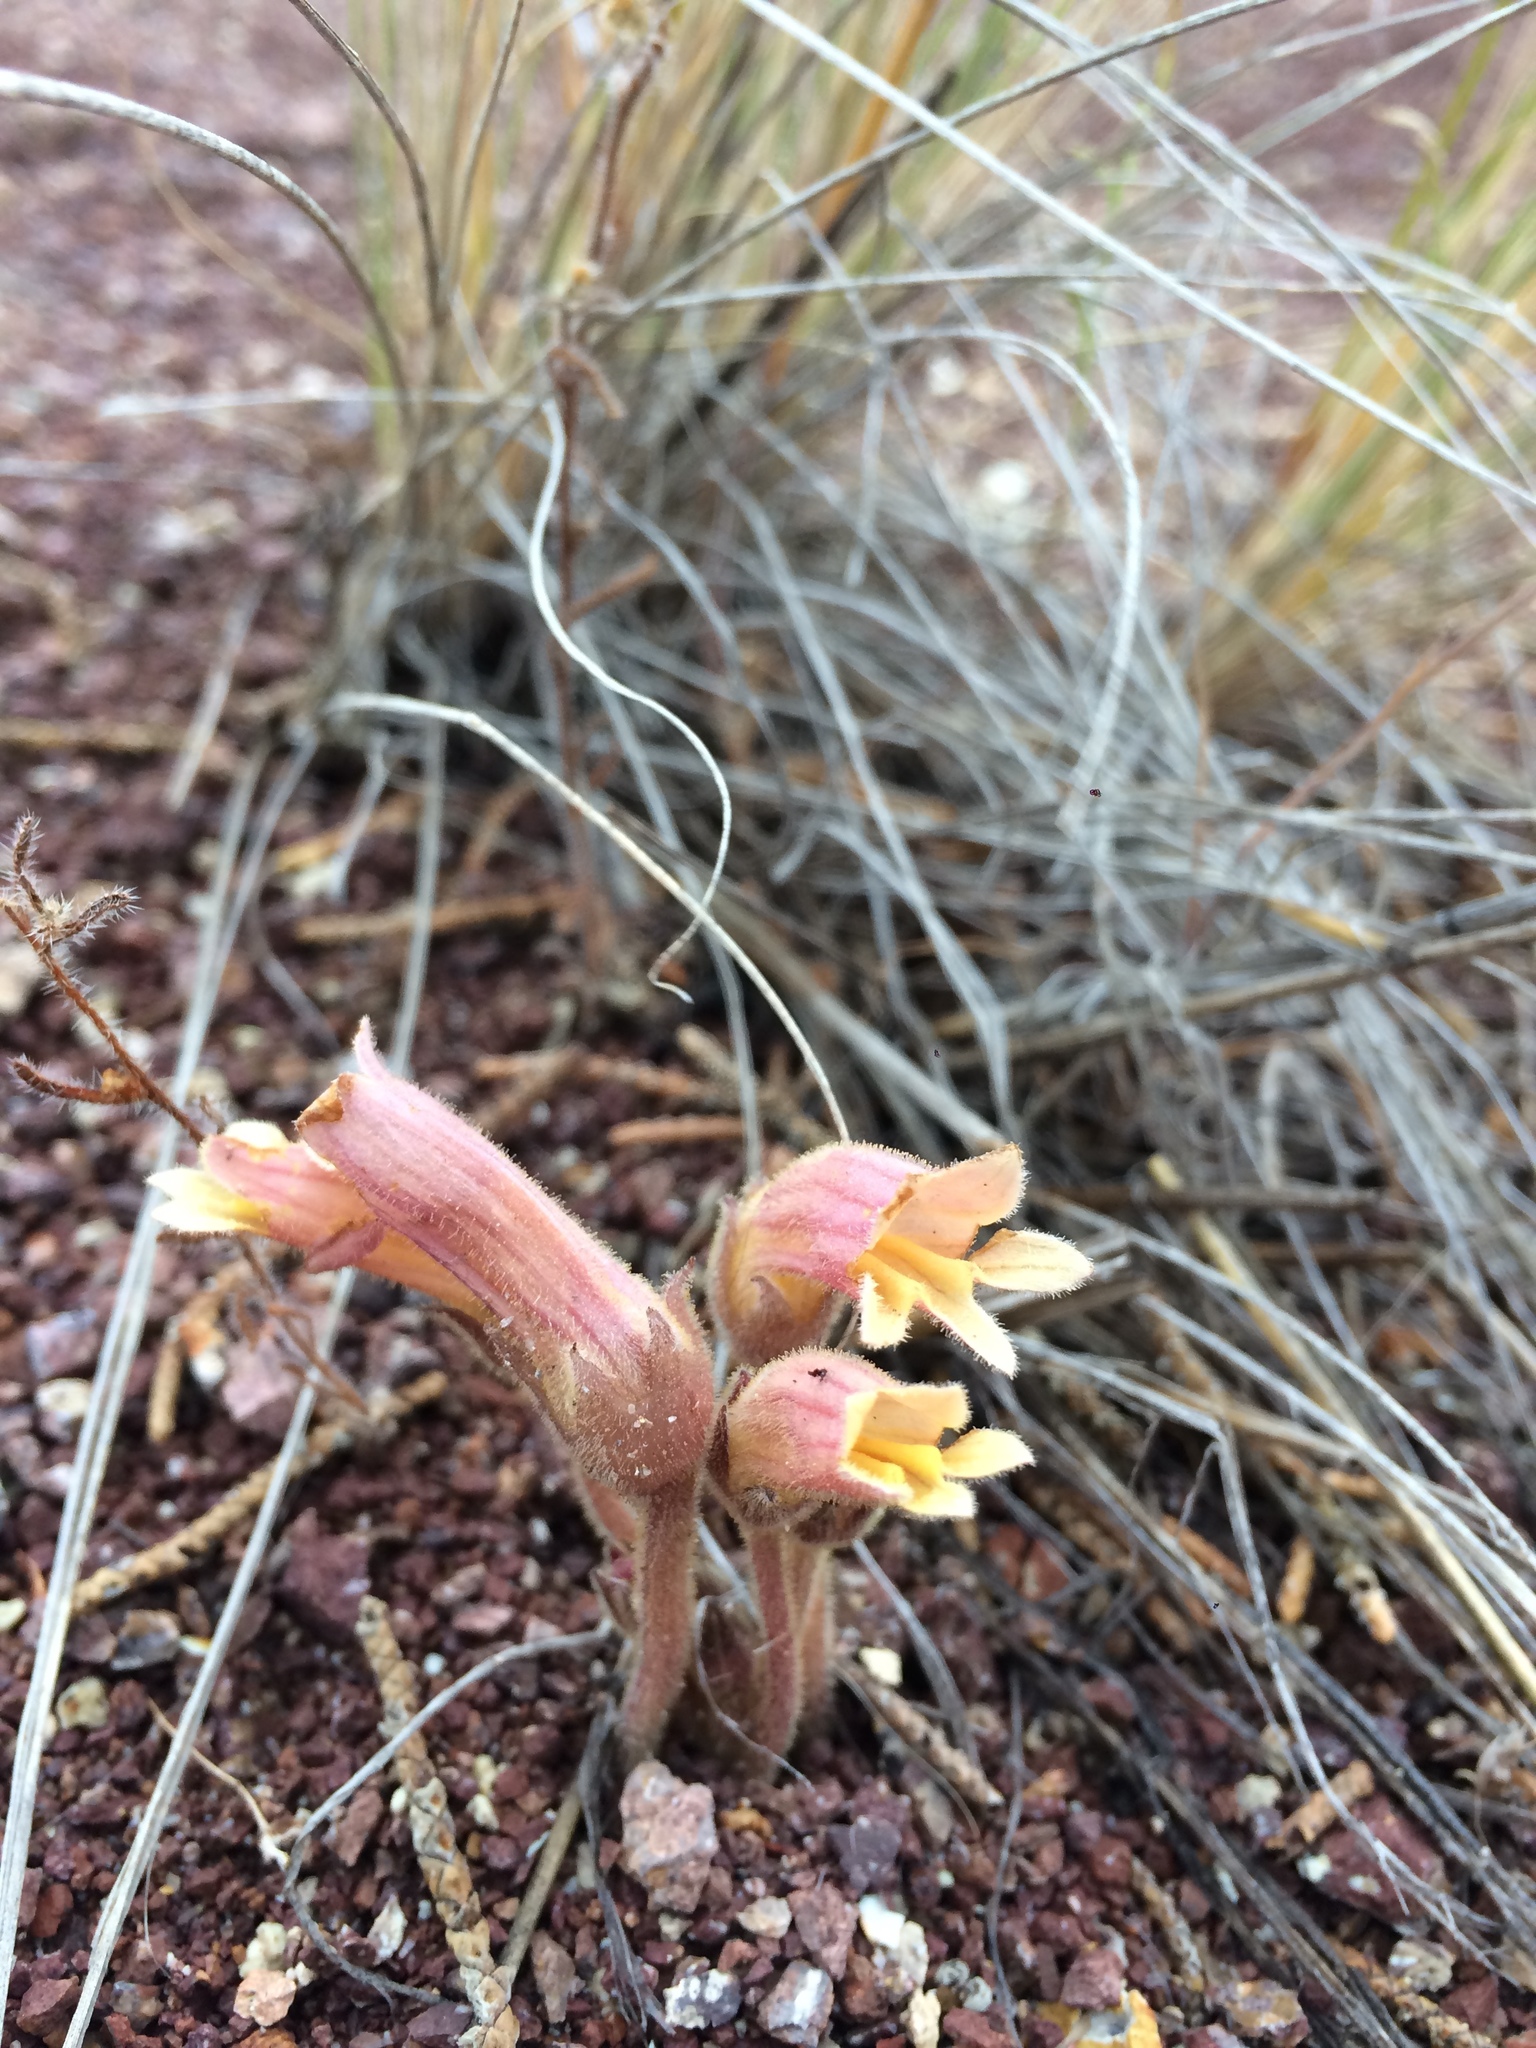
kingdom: Plantae
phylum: Tracheophyta
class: Magnoliopsida
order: Lamiales
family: Orobanchaceae
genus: Aphyllon
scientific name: Aphyllon franciscanum
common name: San francisco broomrape
